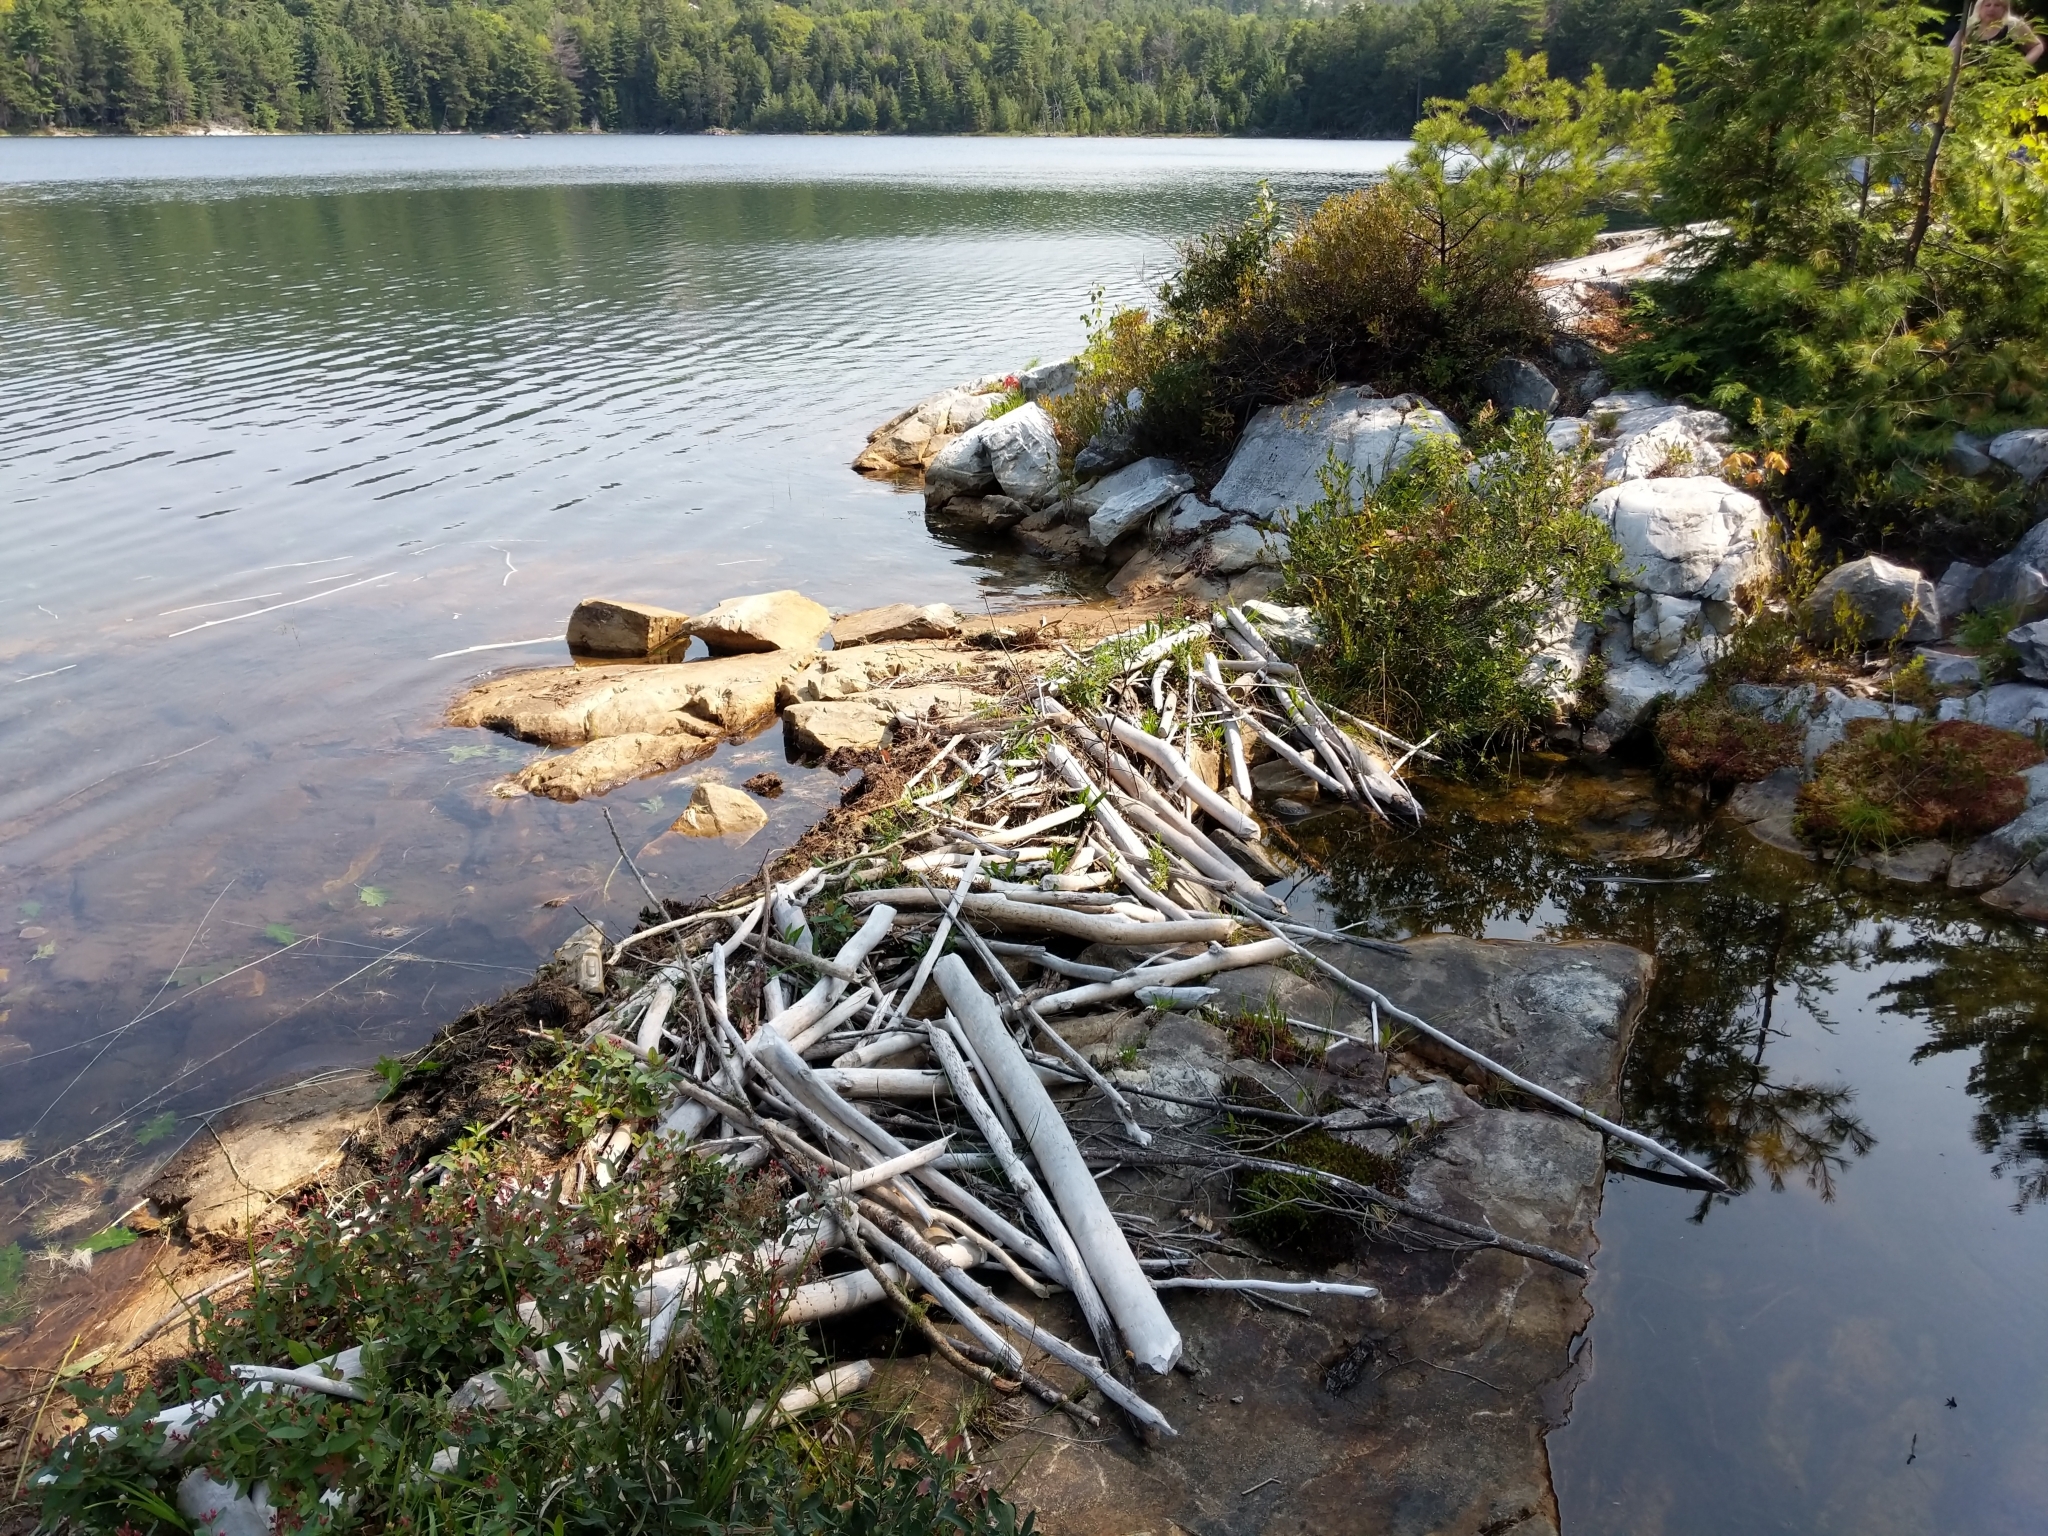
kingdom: Animalia
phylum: Chordata
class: Amphibia
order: Anura
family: Ranidae
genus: Lithobates
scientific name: Lithobates clamitans
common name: Green frog
